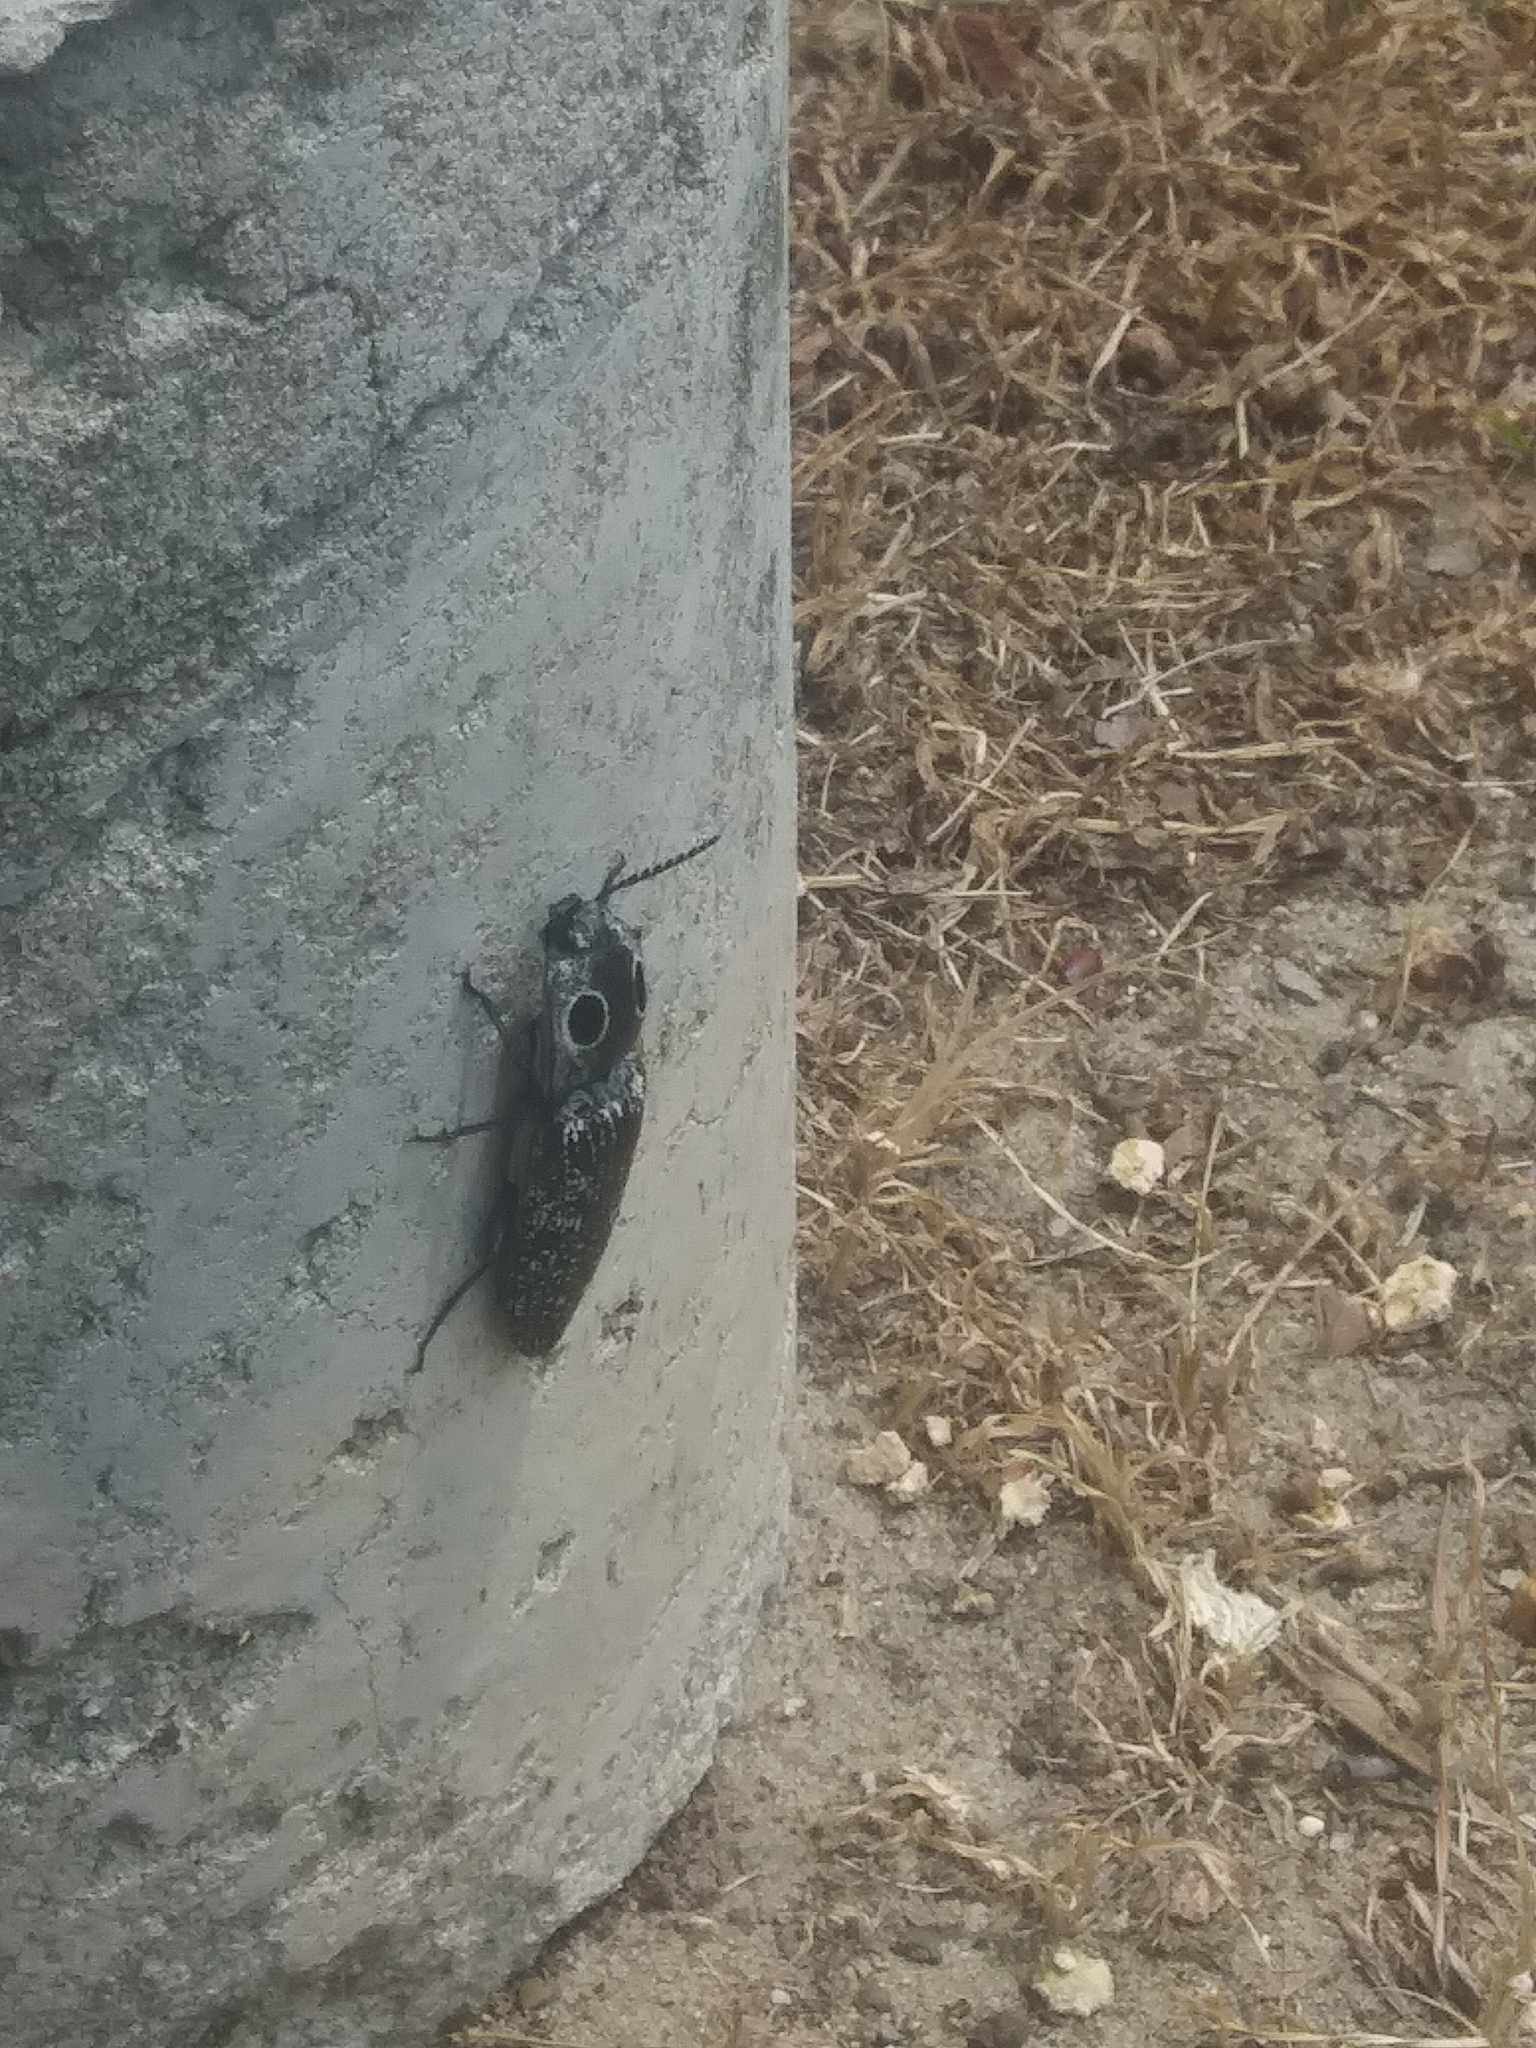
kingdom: Animalia
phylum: Arthropoda
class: Insecta
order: Coleoptera
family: Elateridae
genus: Alaus
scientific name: Alaus oculatus
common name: Eastern eyed click beetle
